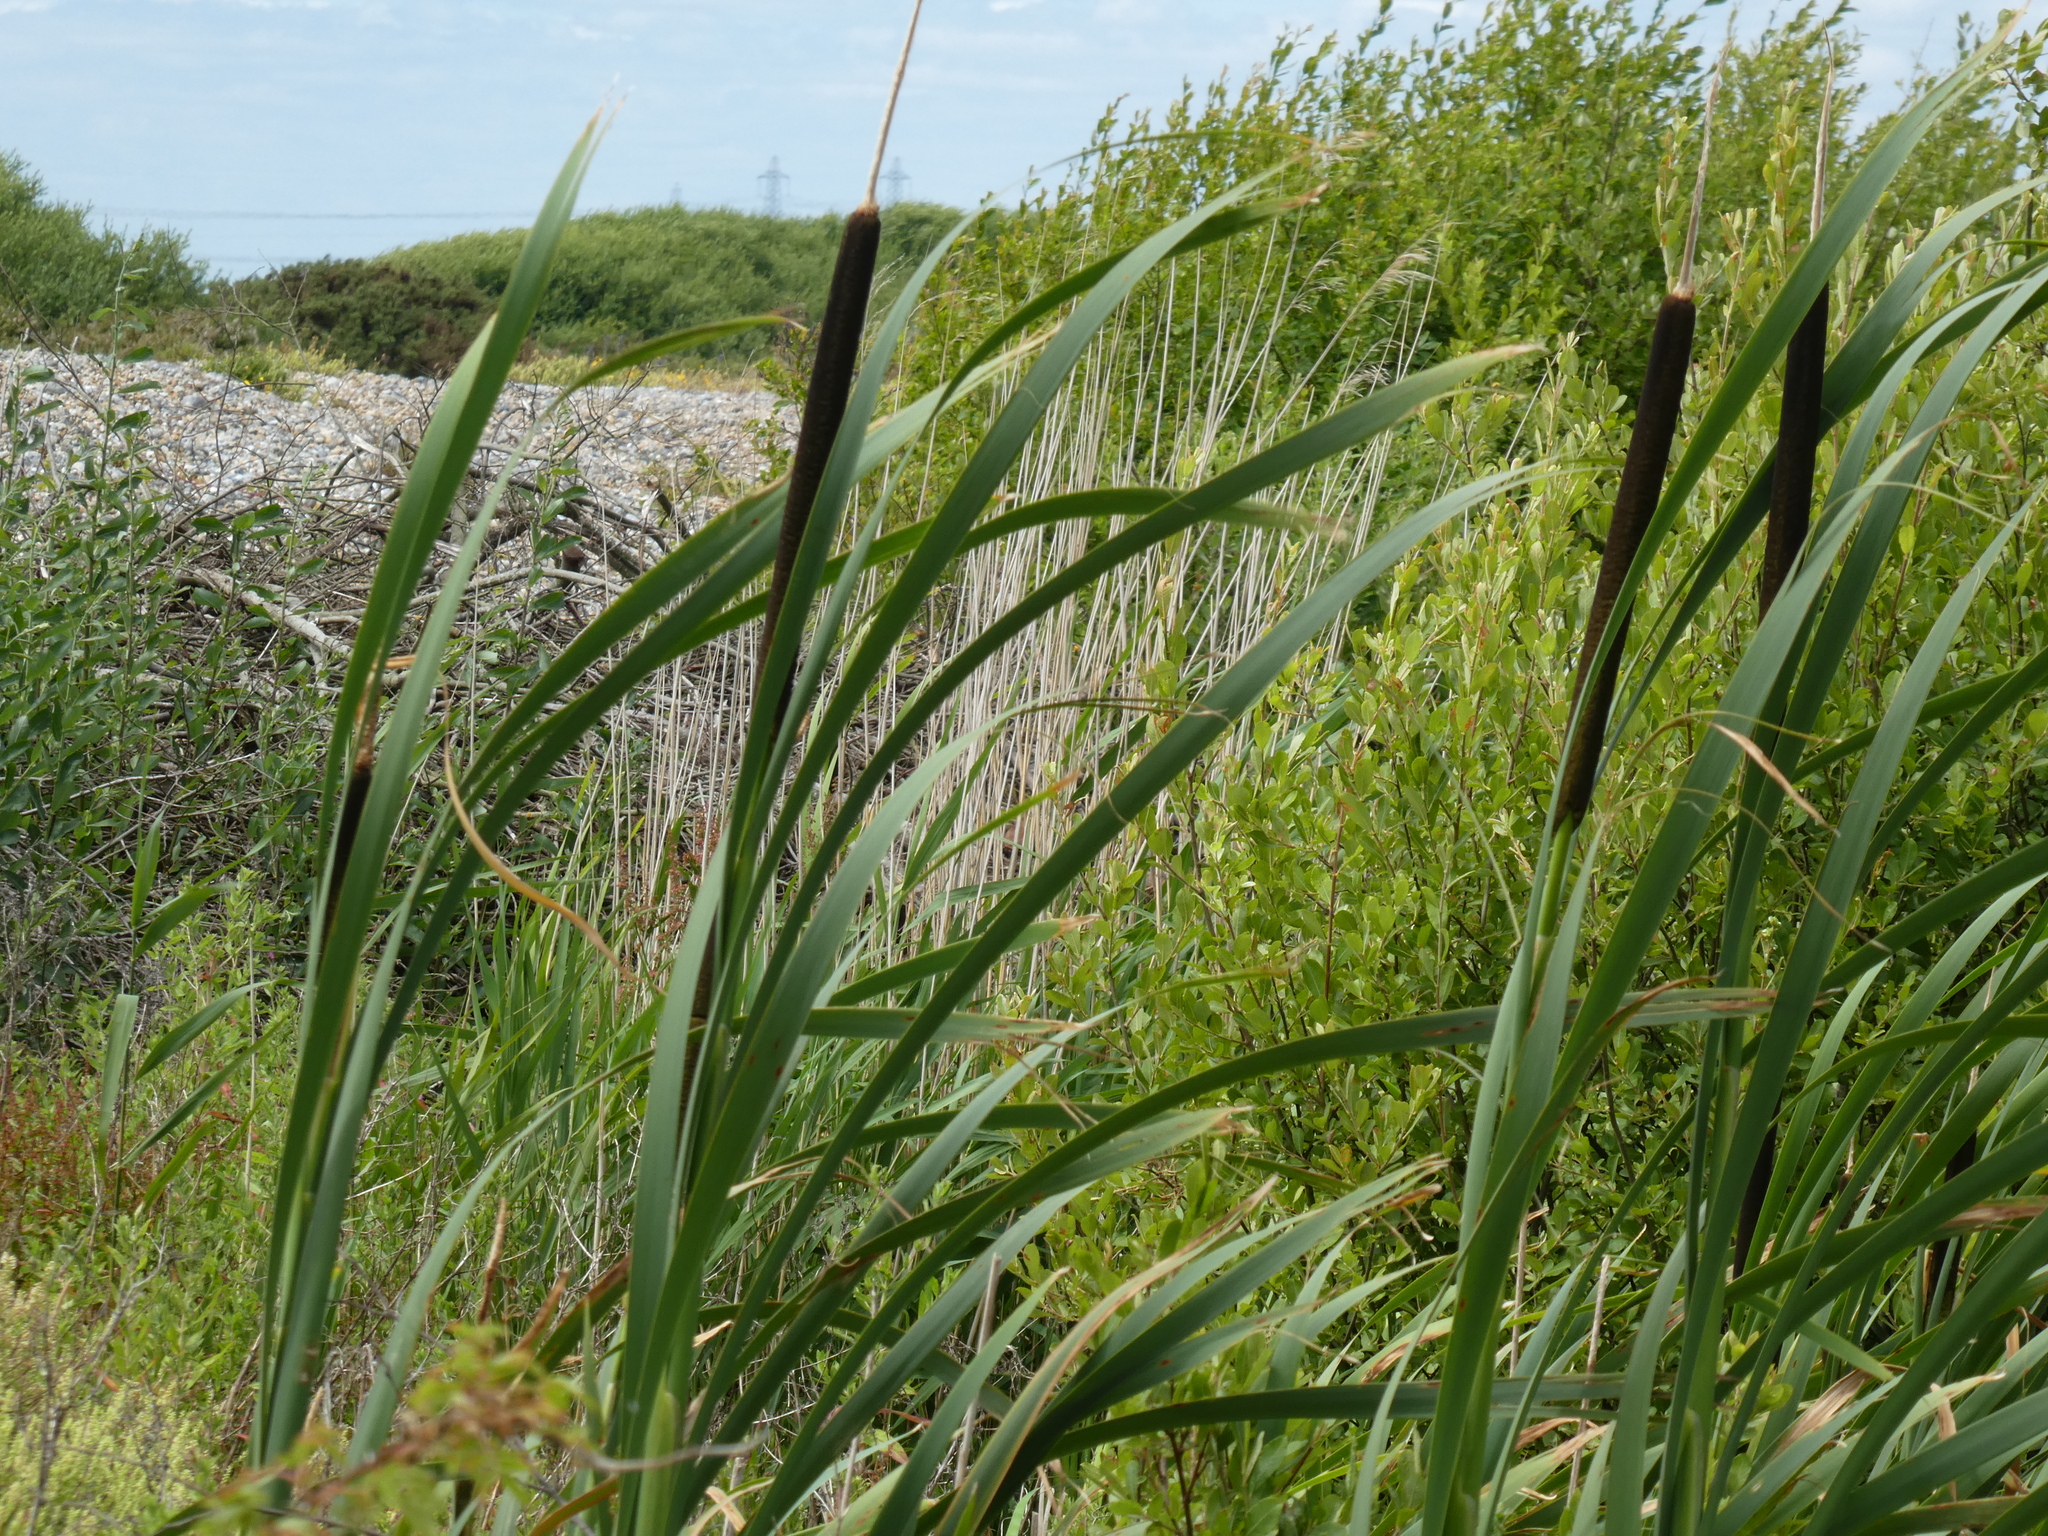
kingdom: Plantae
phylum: Tracheophyta
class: Liliopsida
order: Poales
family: Typhaceae
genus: Typha
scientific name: Typha latifolia
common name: Broadleaf cattail
